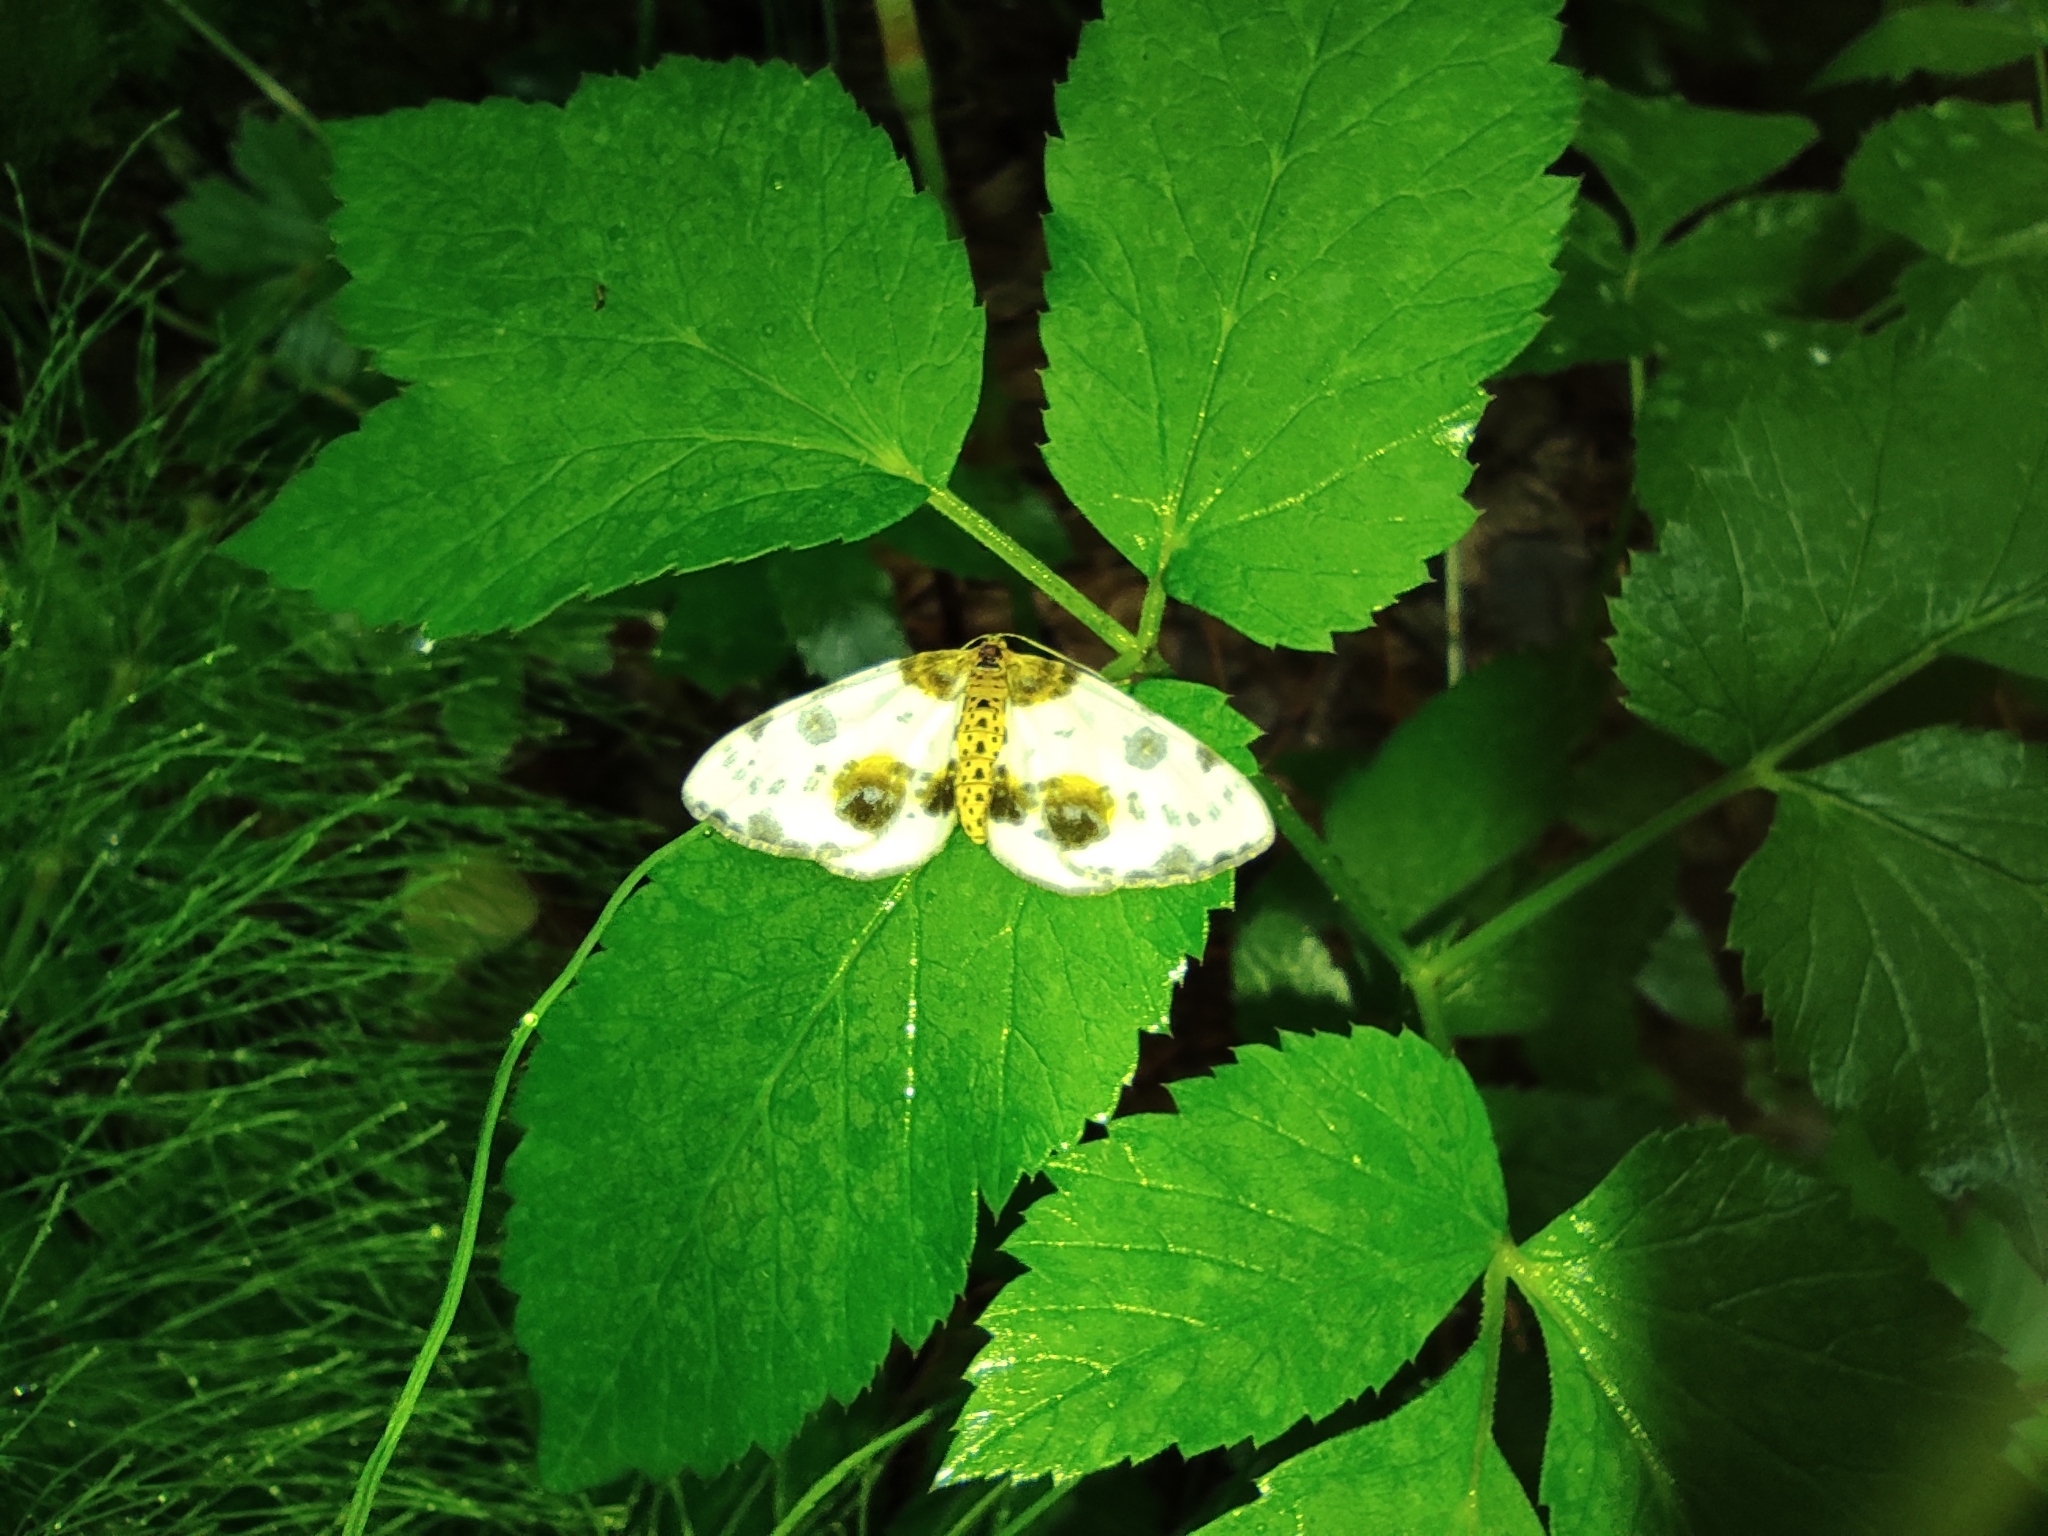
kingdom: Animalia
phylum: Arthropoda
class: Insecta
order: Lepidoptera
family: Geometridae
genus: Abraxas
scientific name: Abraxas sylvata
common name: Clouded magpie
